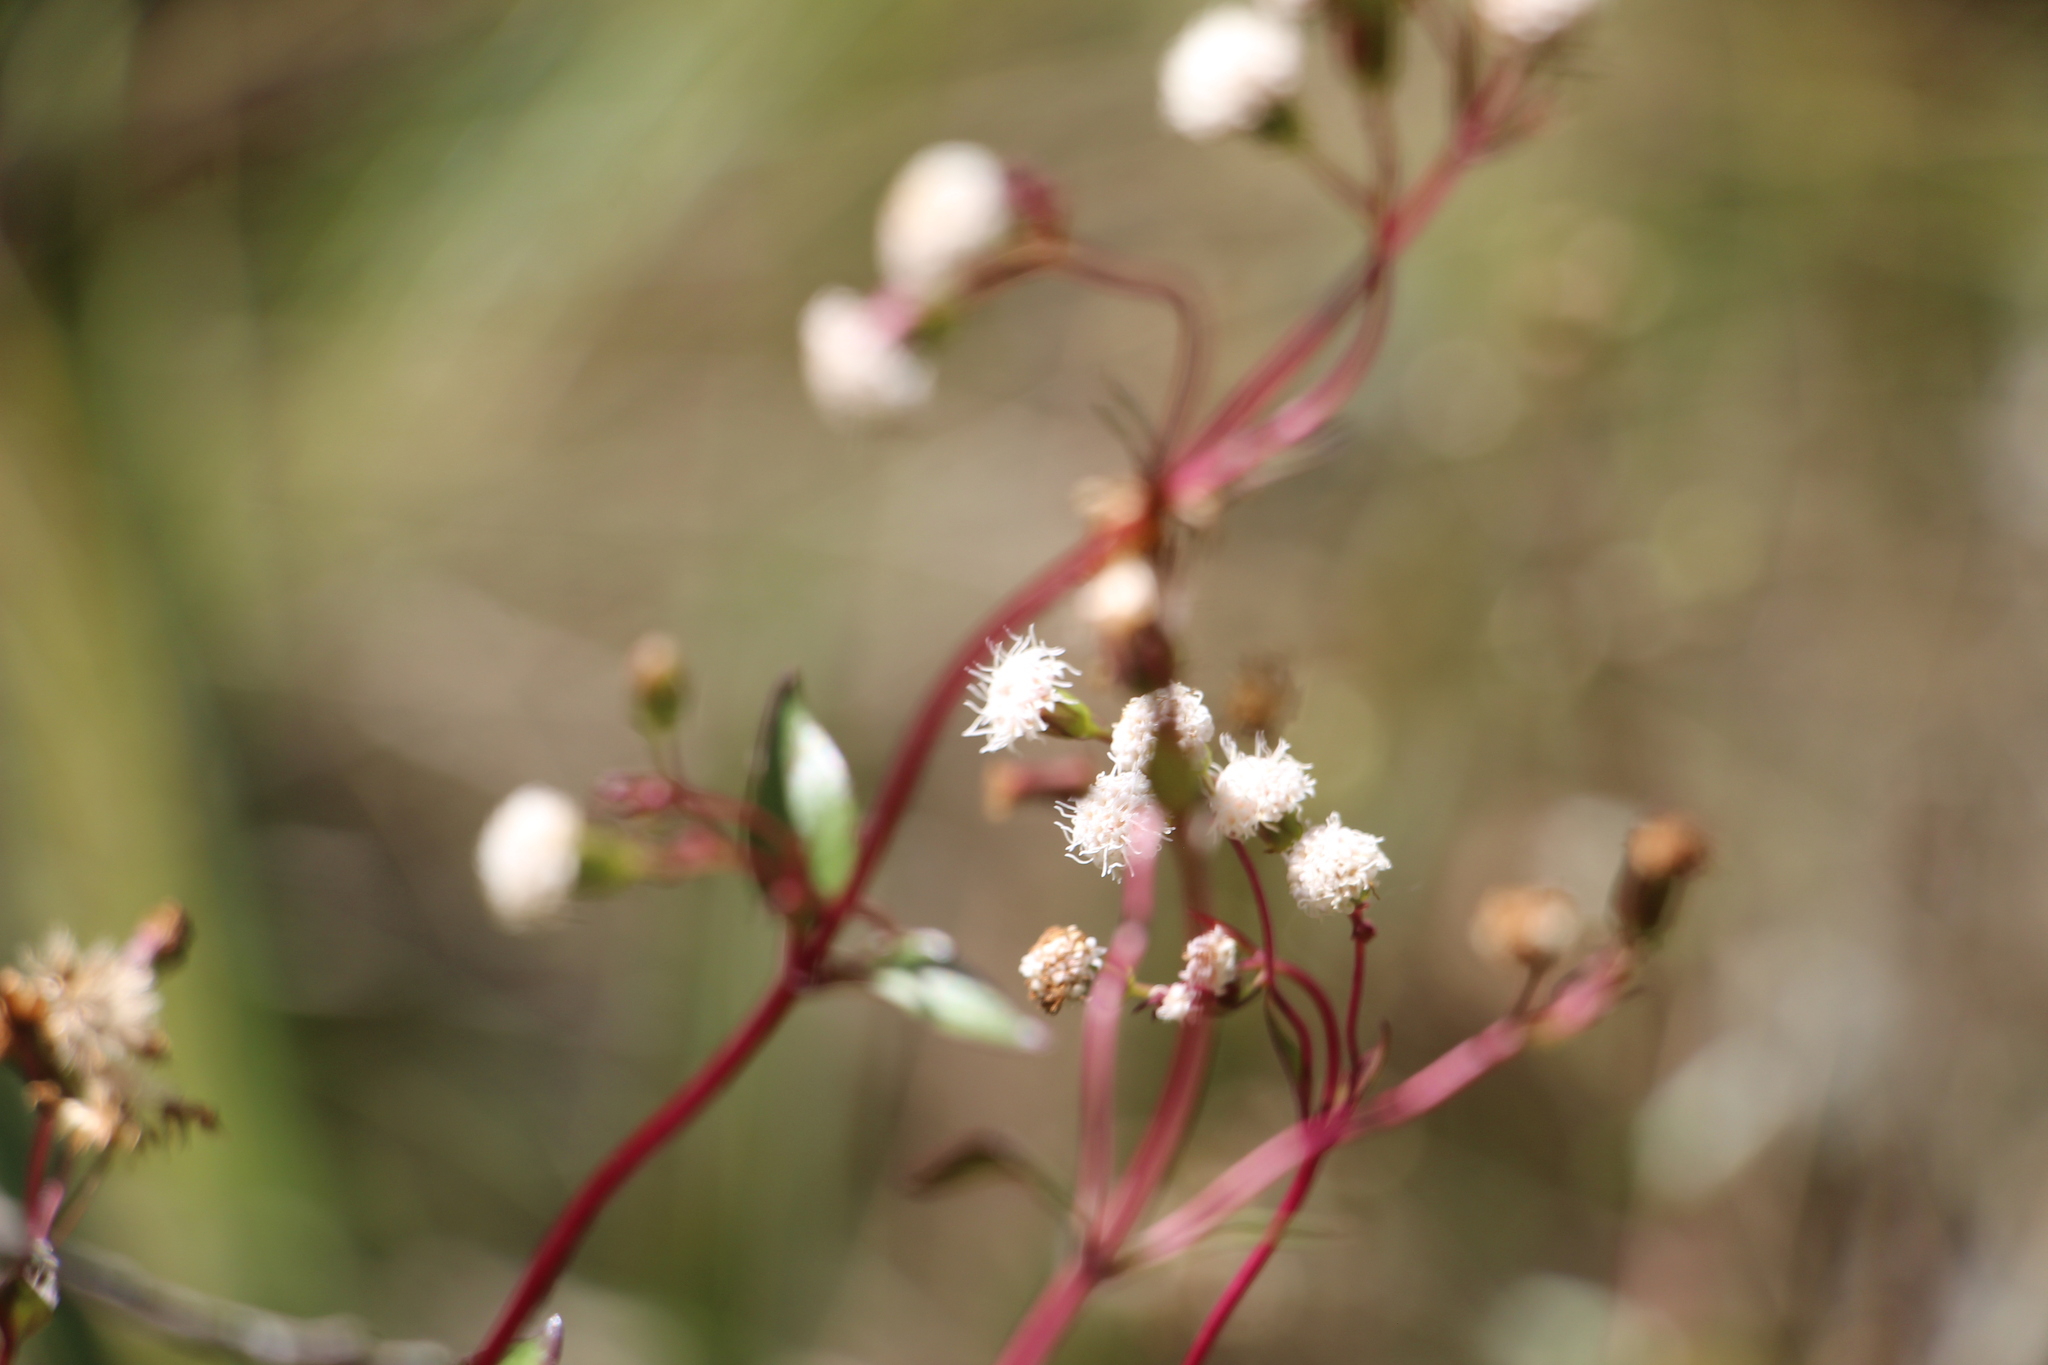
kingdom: Plantae
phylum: Tracheophyta
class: Magnoliopsida
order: Asterales
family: Asteraceae
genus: Ageratina
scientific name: Ageratina gracilis
